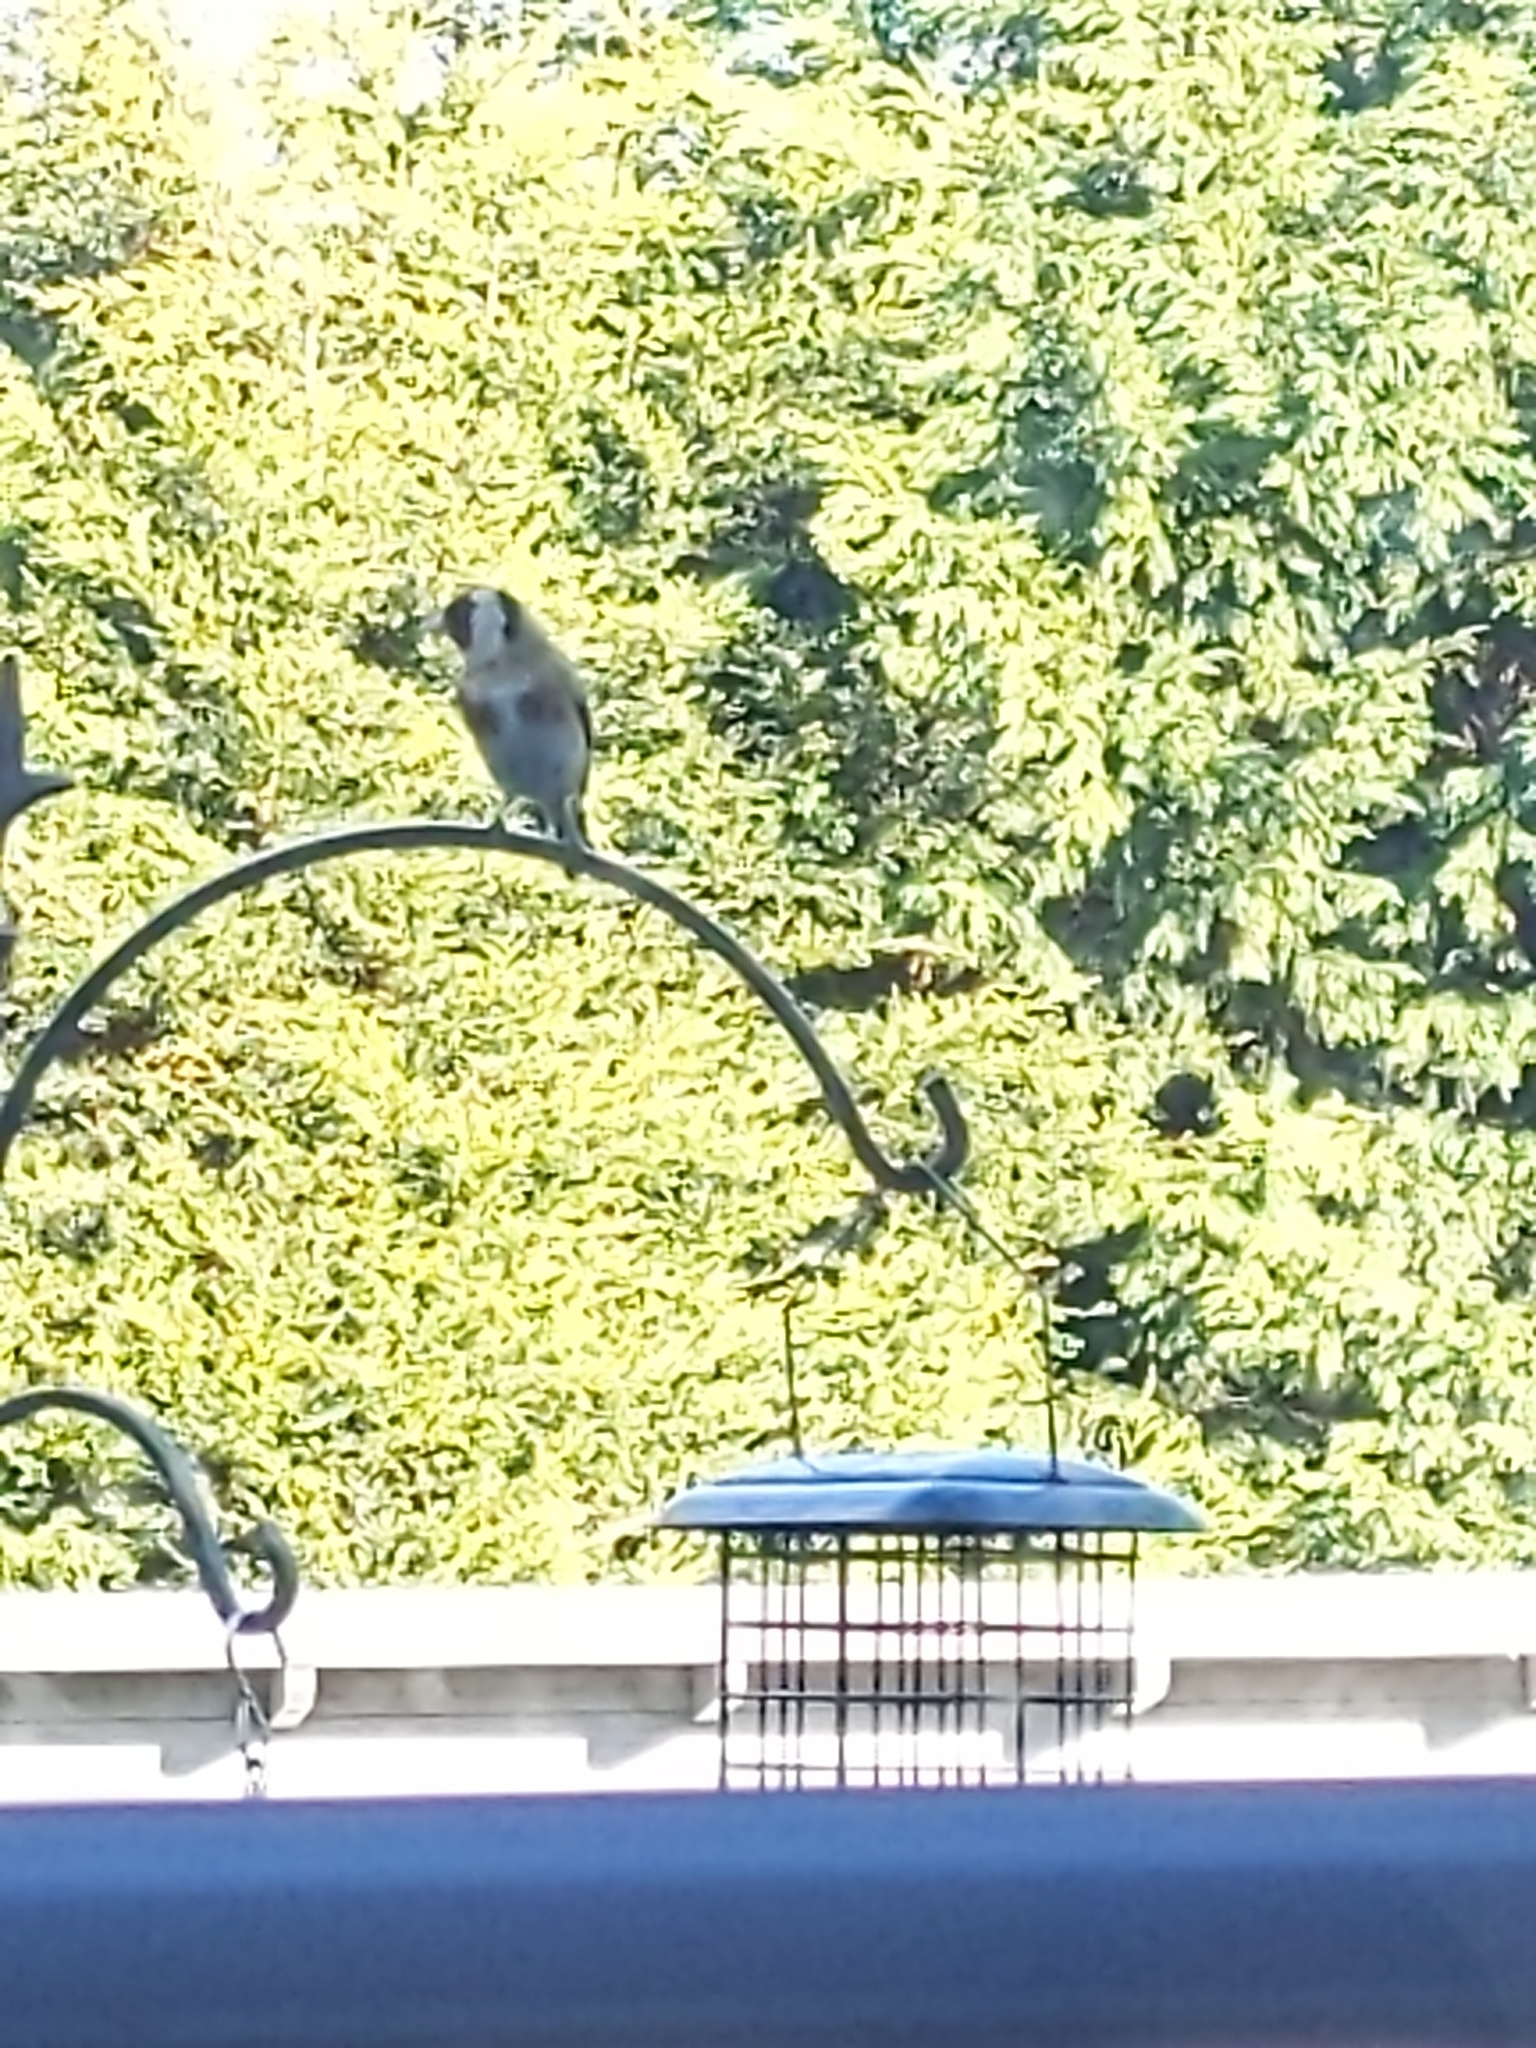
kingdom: Animalia
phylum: Chordata
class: Aves
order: Passeriformes
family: Fringillidae
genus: Carduelis
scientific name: Carduelis carduelis
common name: European goldfinch
